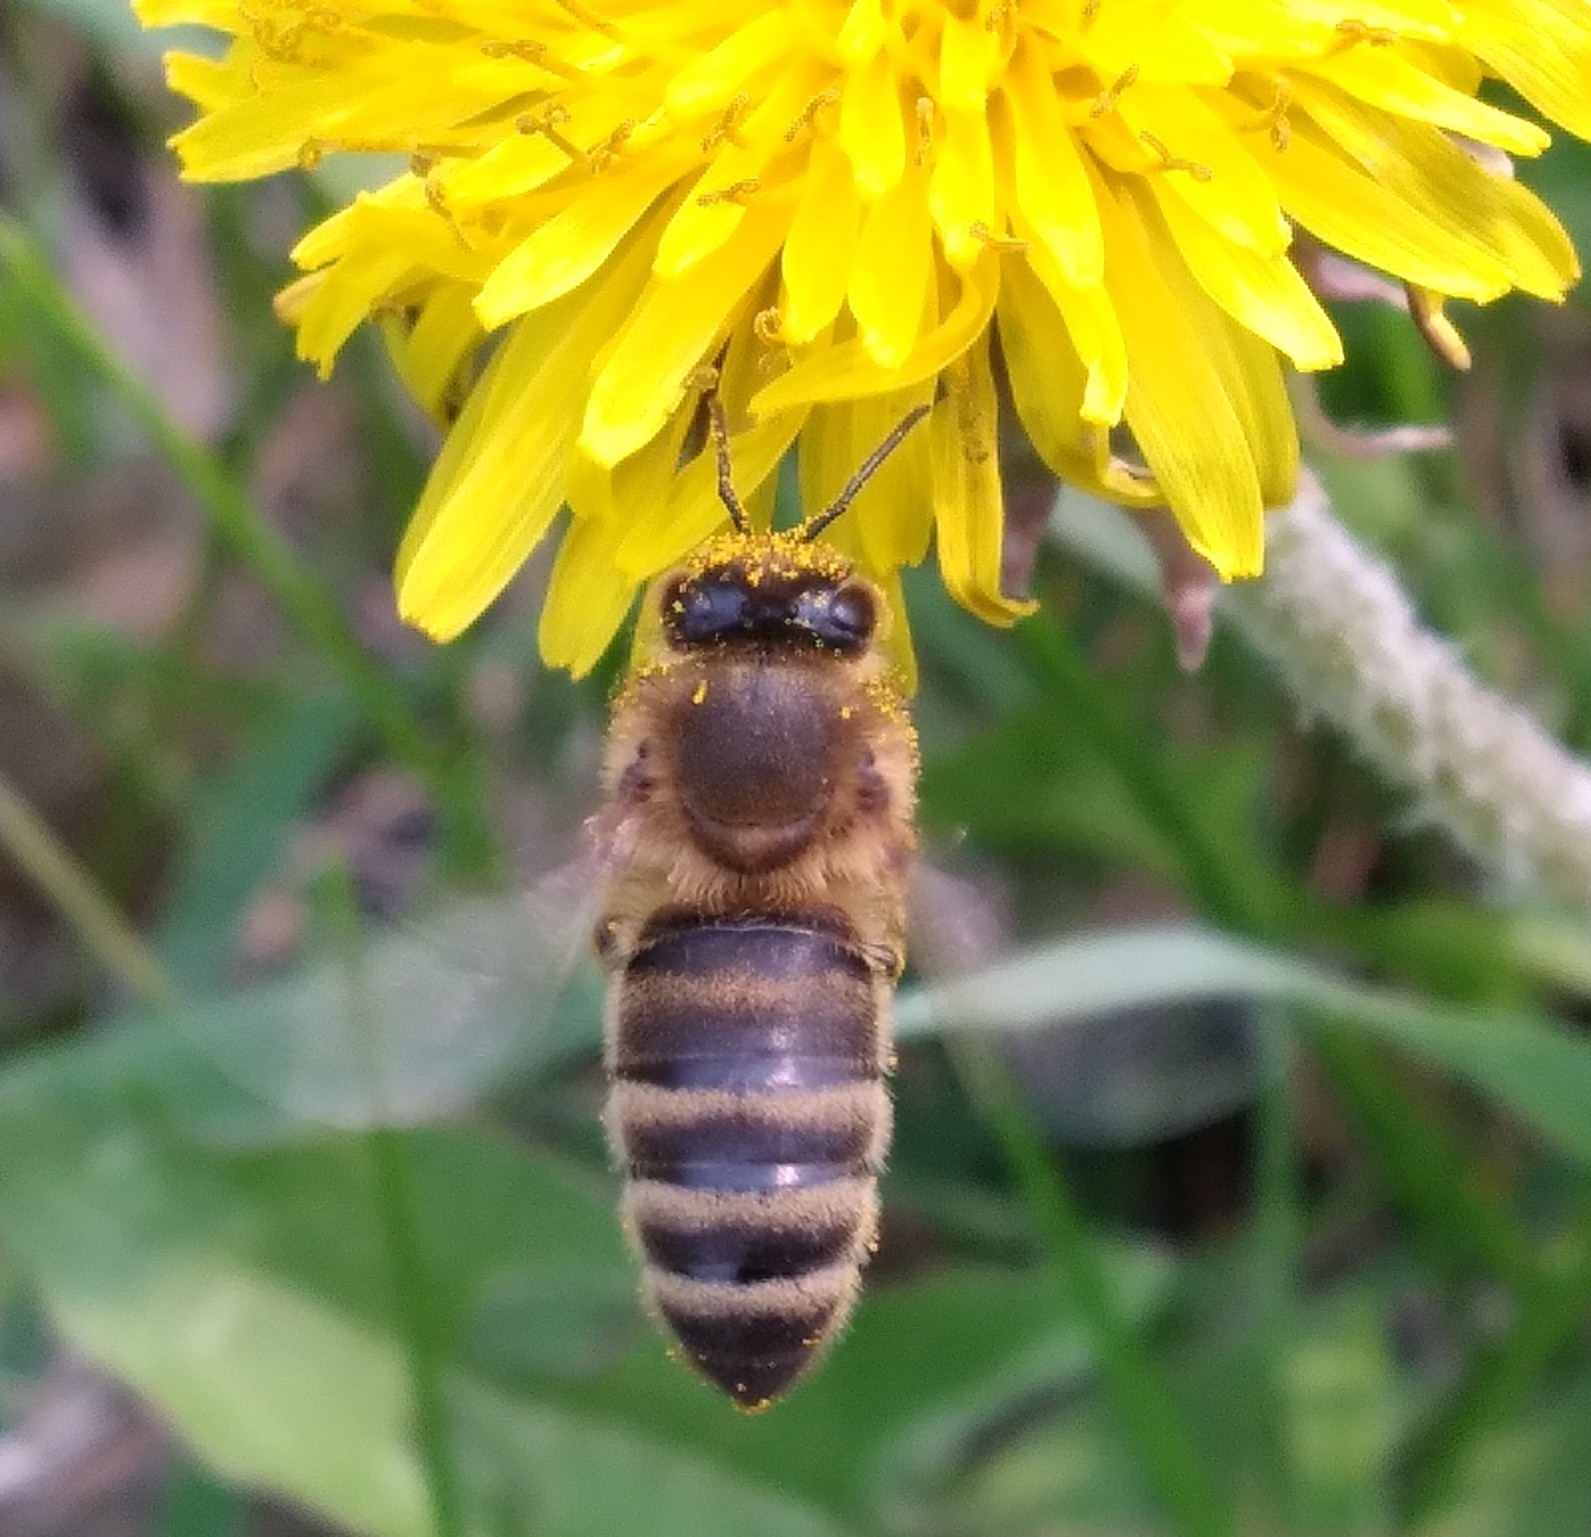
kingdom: Animalia
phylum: Arthropoda
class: Insecta
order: Hymenoptera
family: Apidae
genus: Apis
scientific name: Apis mellifera
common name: Honey bee
